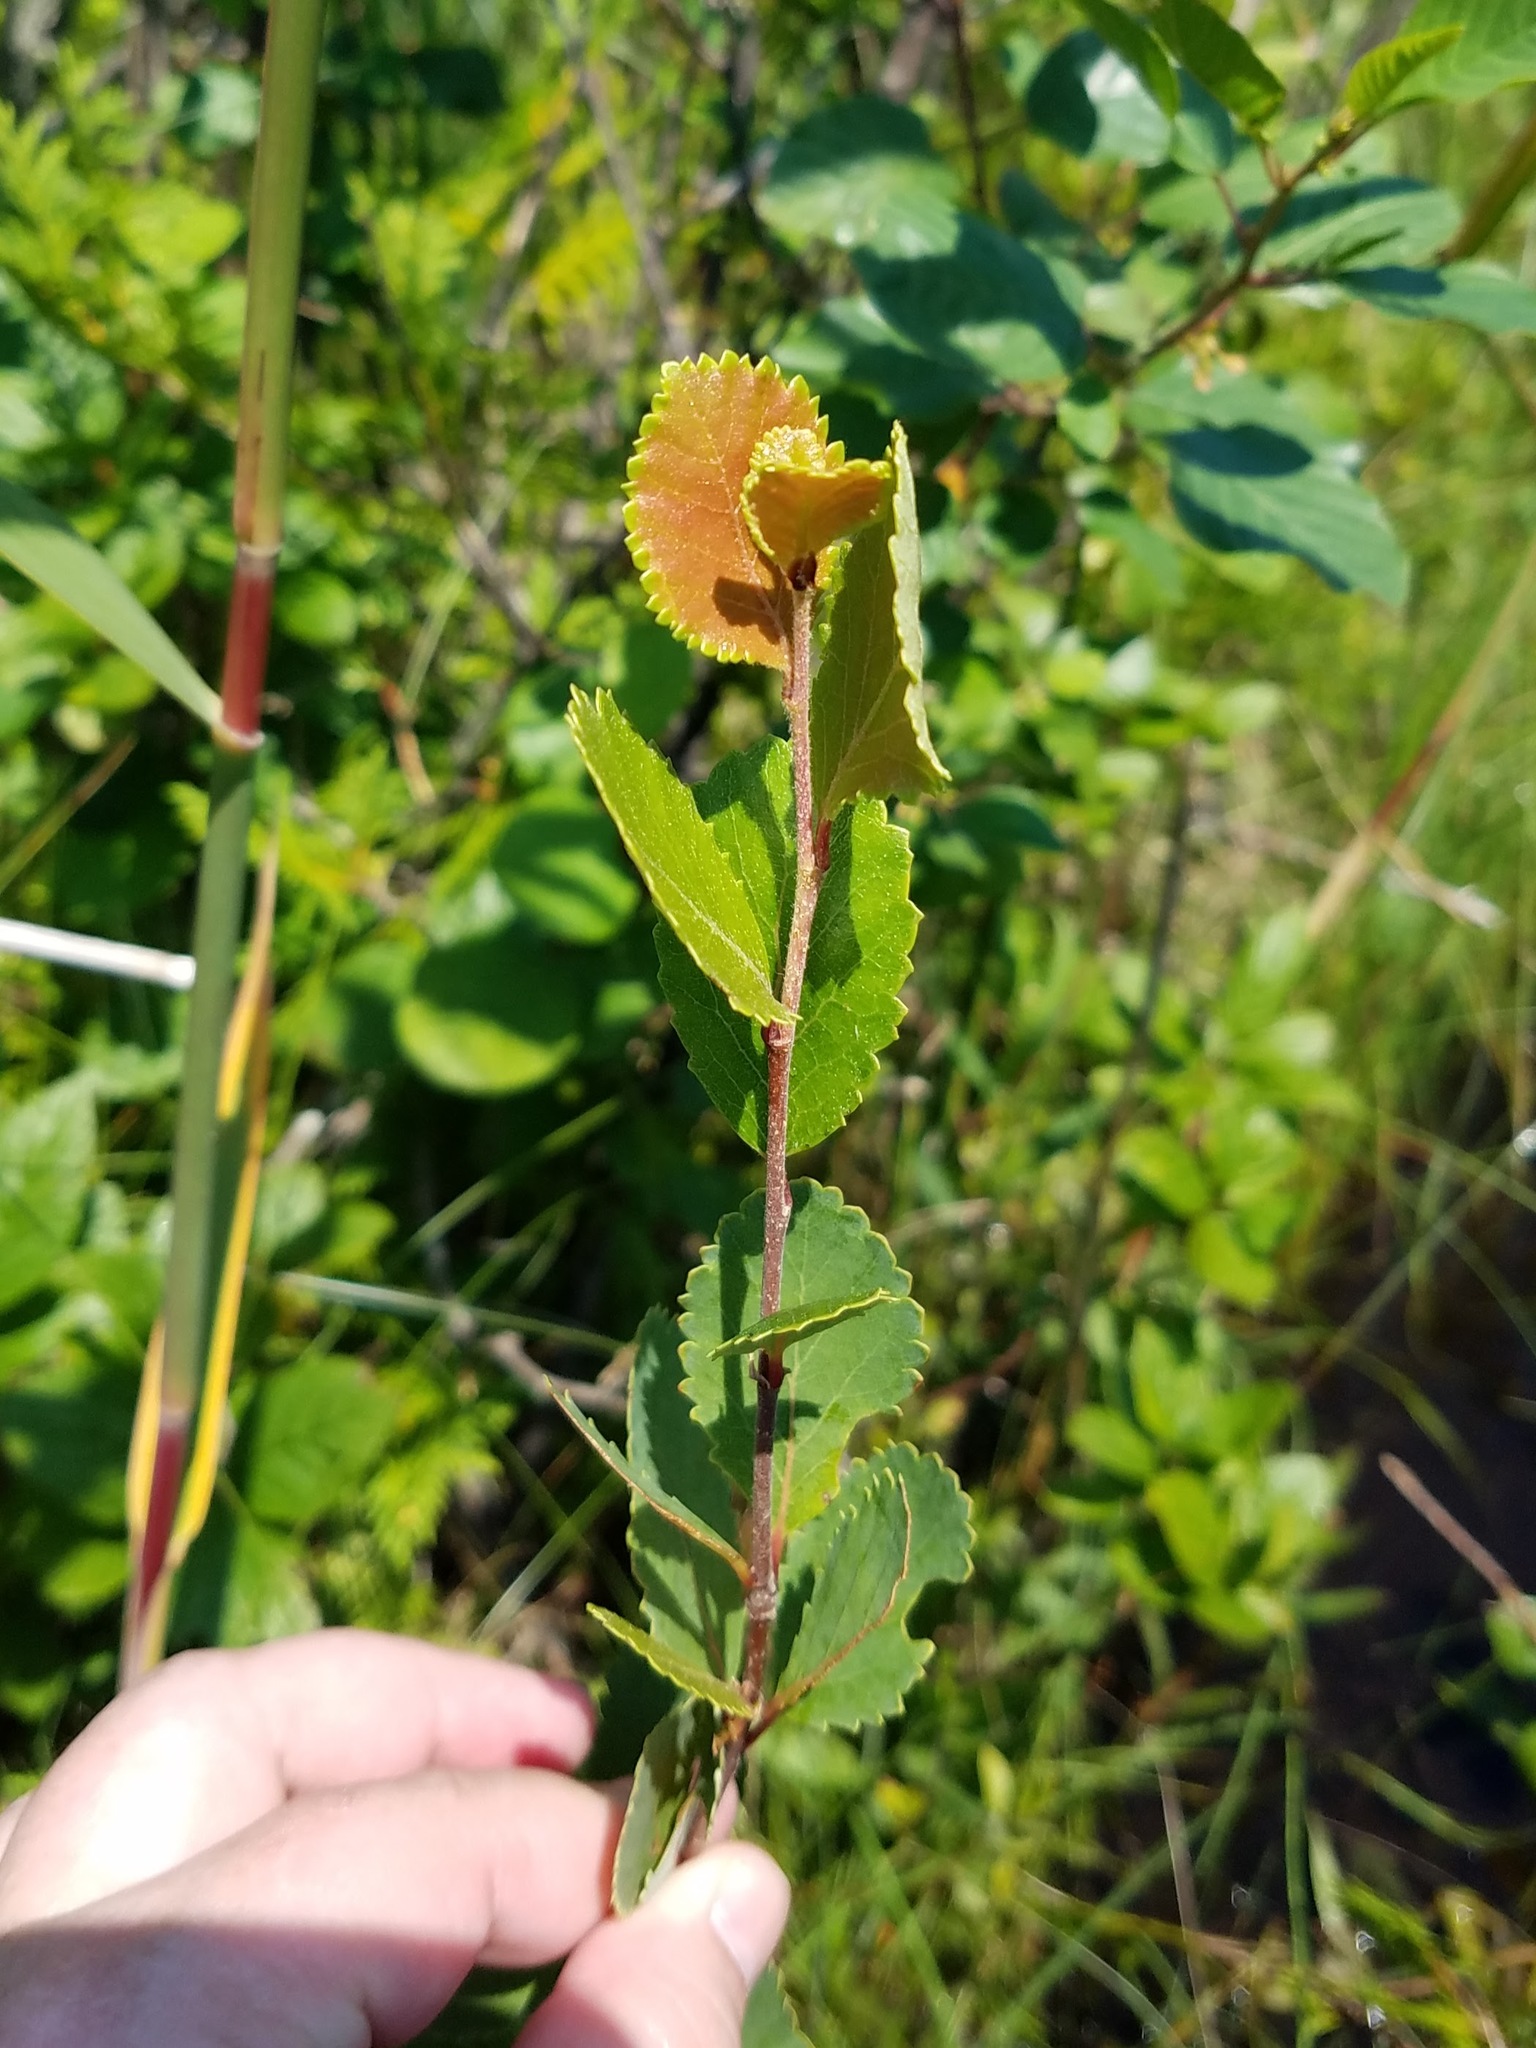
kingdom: Plantae
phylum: Tracheophyta
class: Magnoliopsida
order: Fagales
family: Betulaceae
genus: Betula
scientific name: Betula pumila
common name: Bog birch
